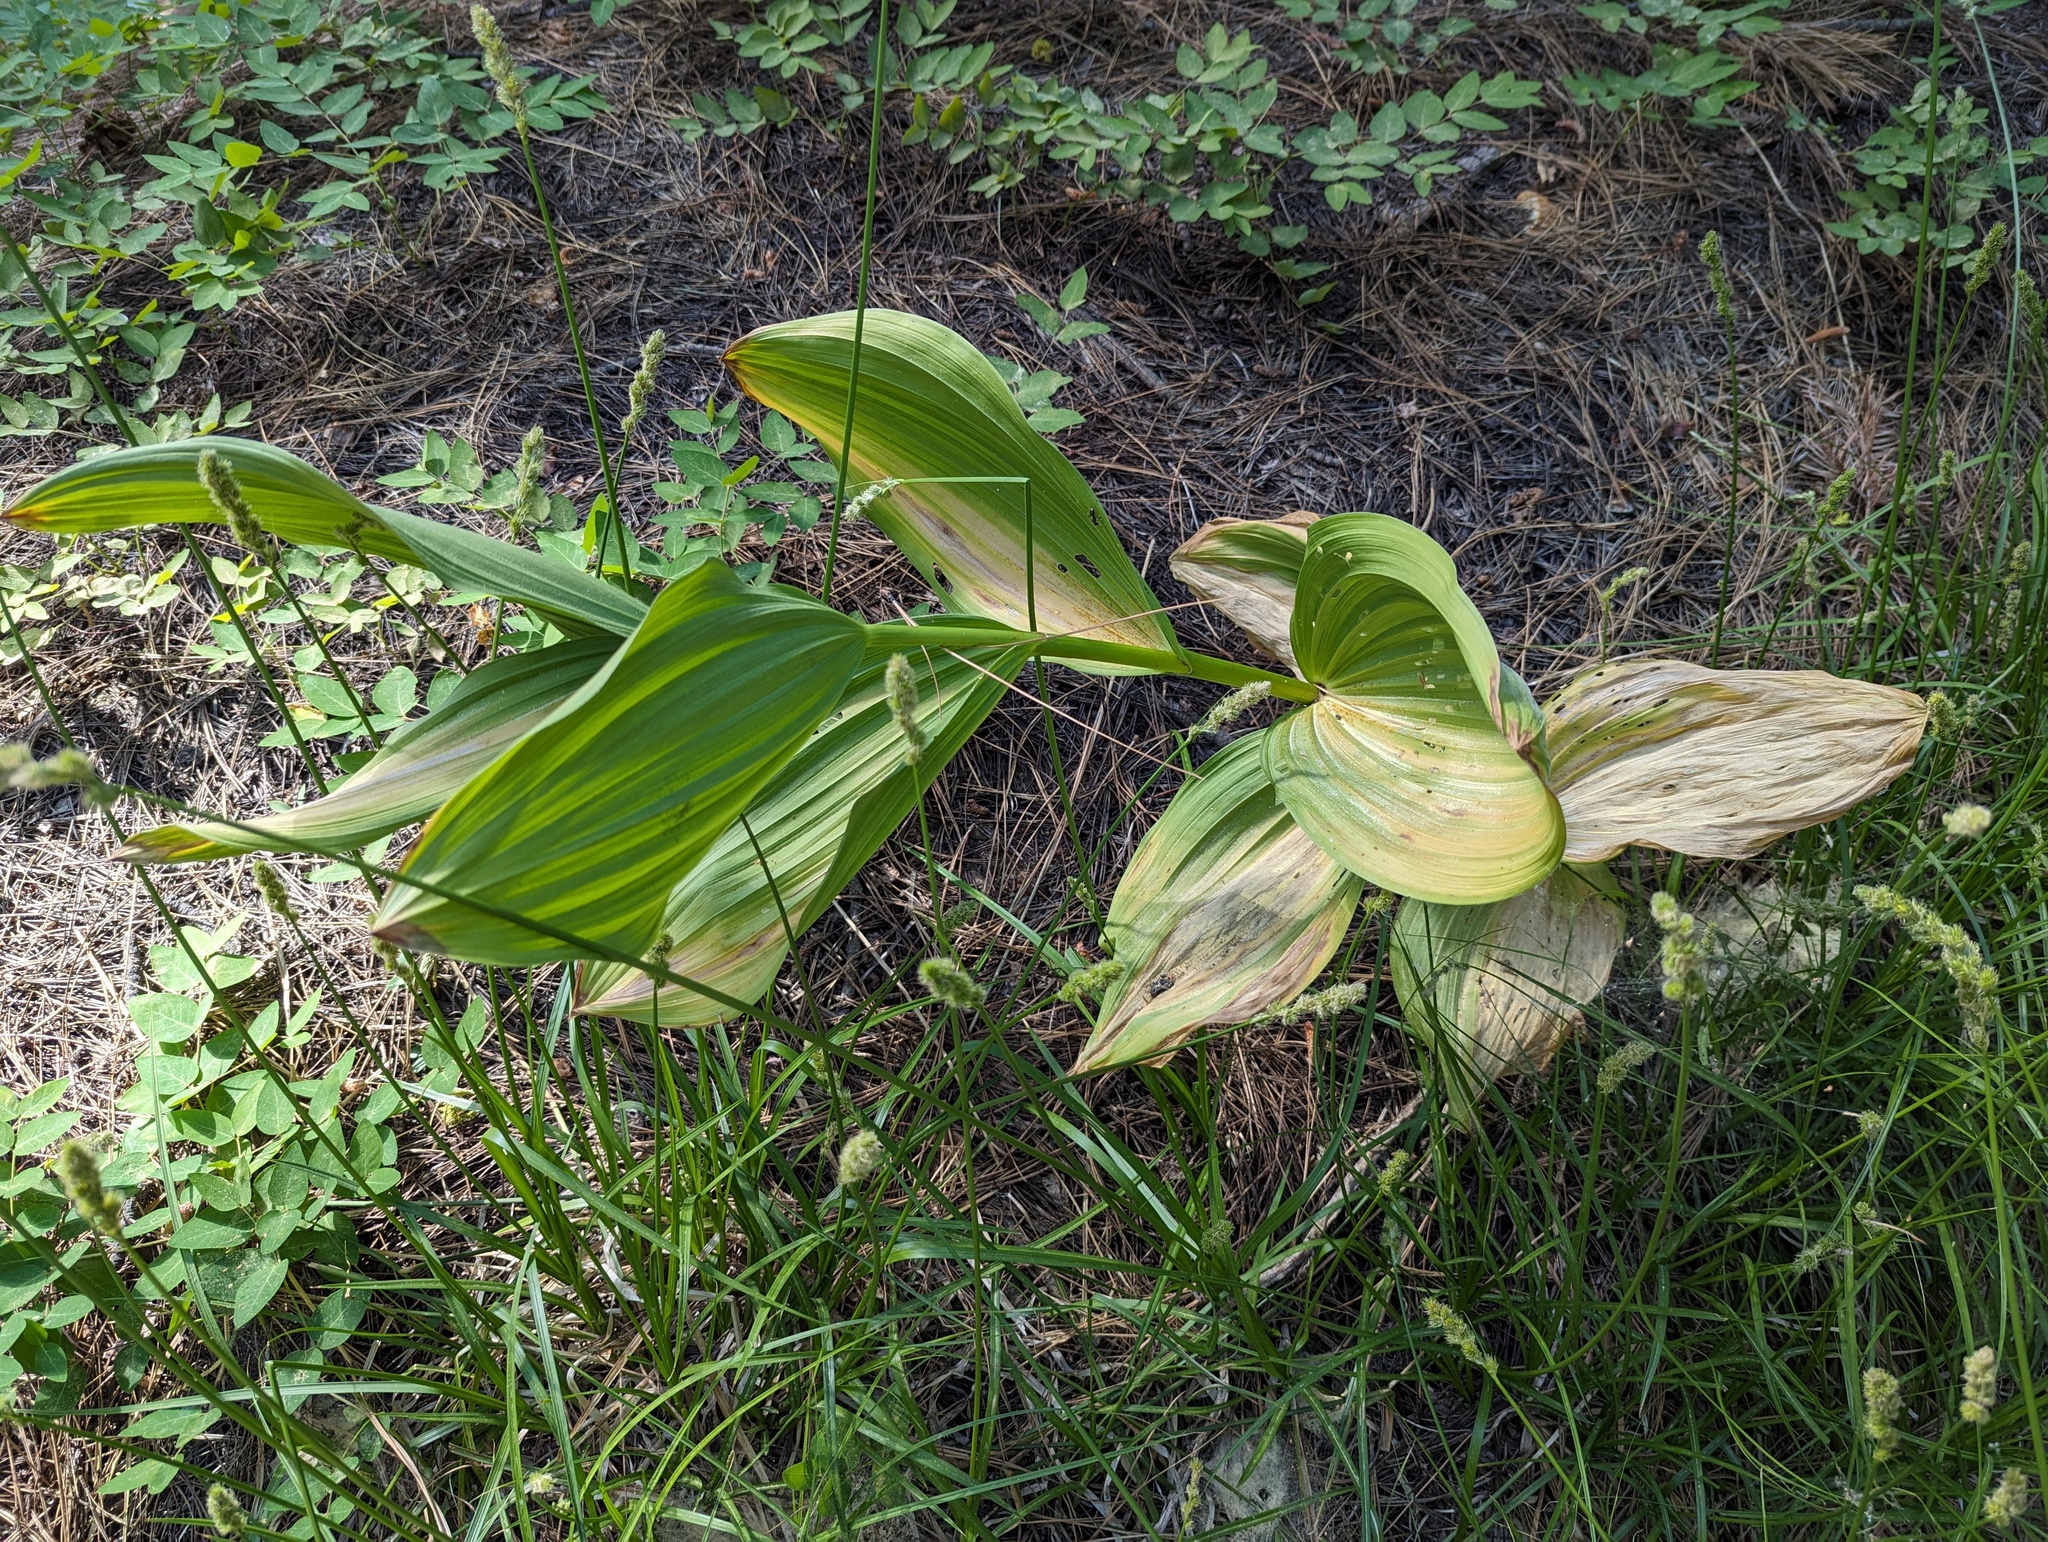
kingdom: Plantae
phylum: Tracheophyta
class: Liliopsida
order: Liliales
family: Melanthiaceae
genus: Veratrum
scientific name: Veratrum californicum
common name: California veratrum
